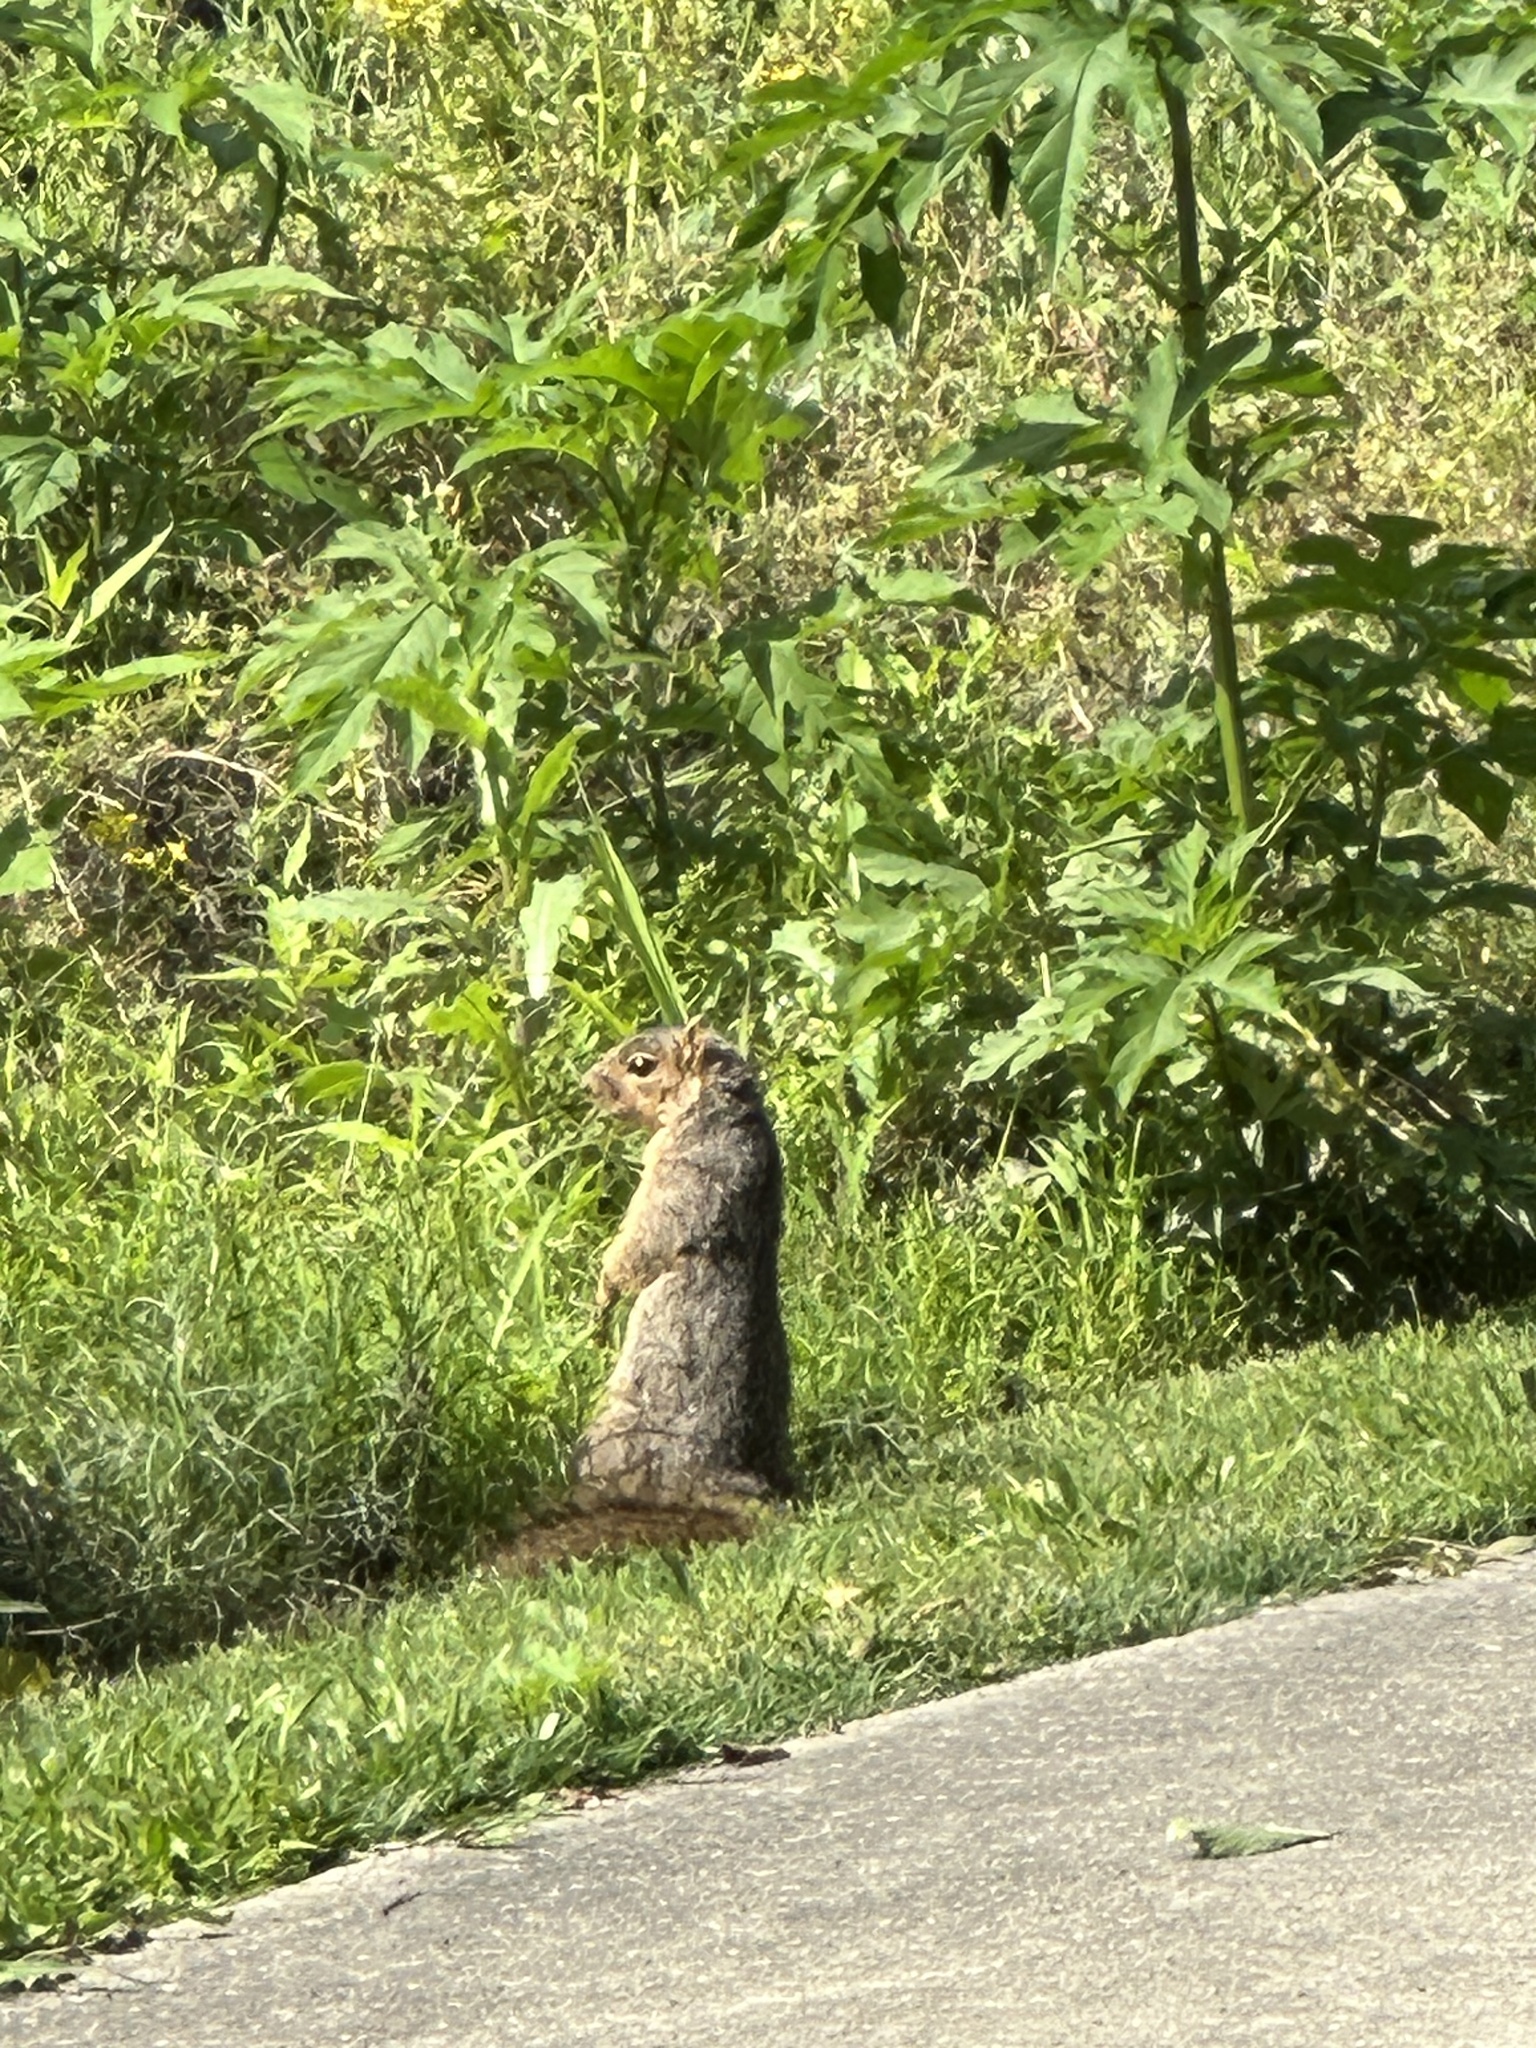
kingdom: Animalia
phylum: Chordata
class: Mammalia
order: Rodentia
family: Sciuridae
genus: Sciurus
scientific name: Sciurus niger
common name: Fox squirrel
